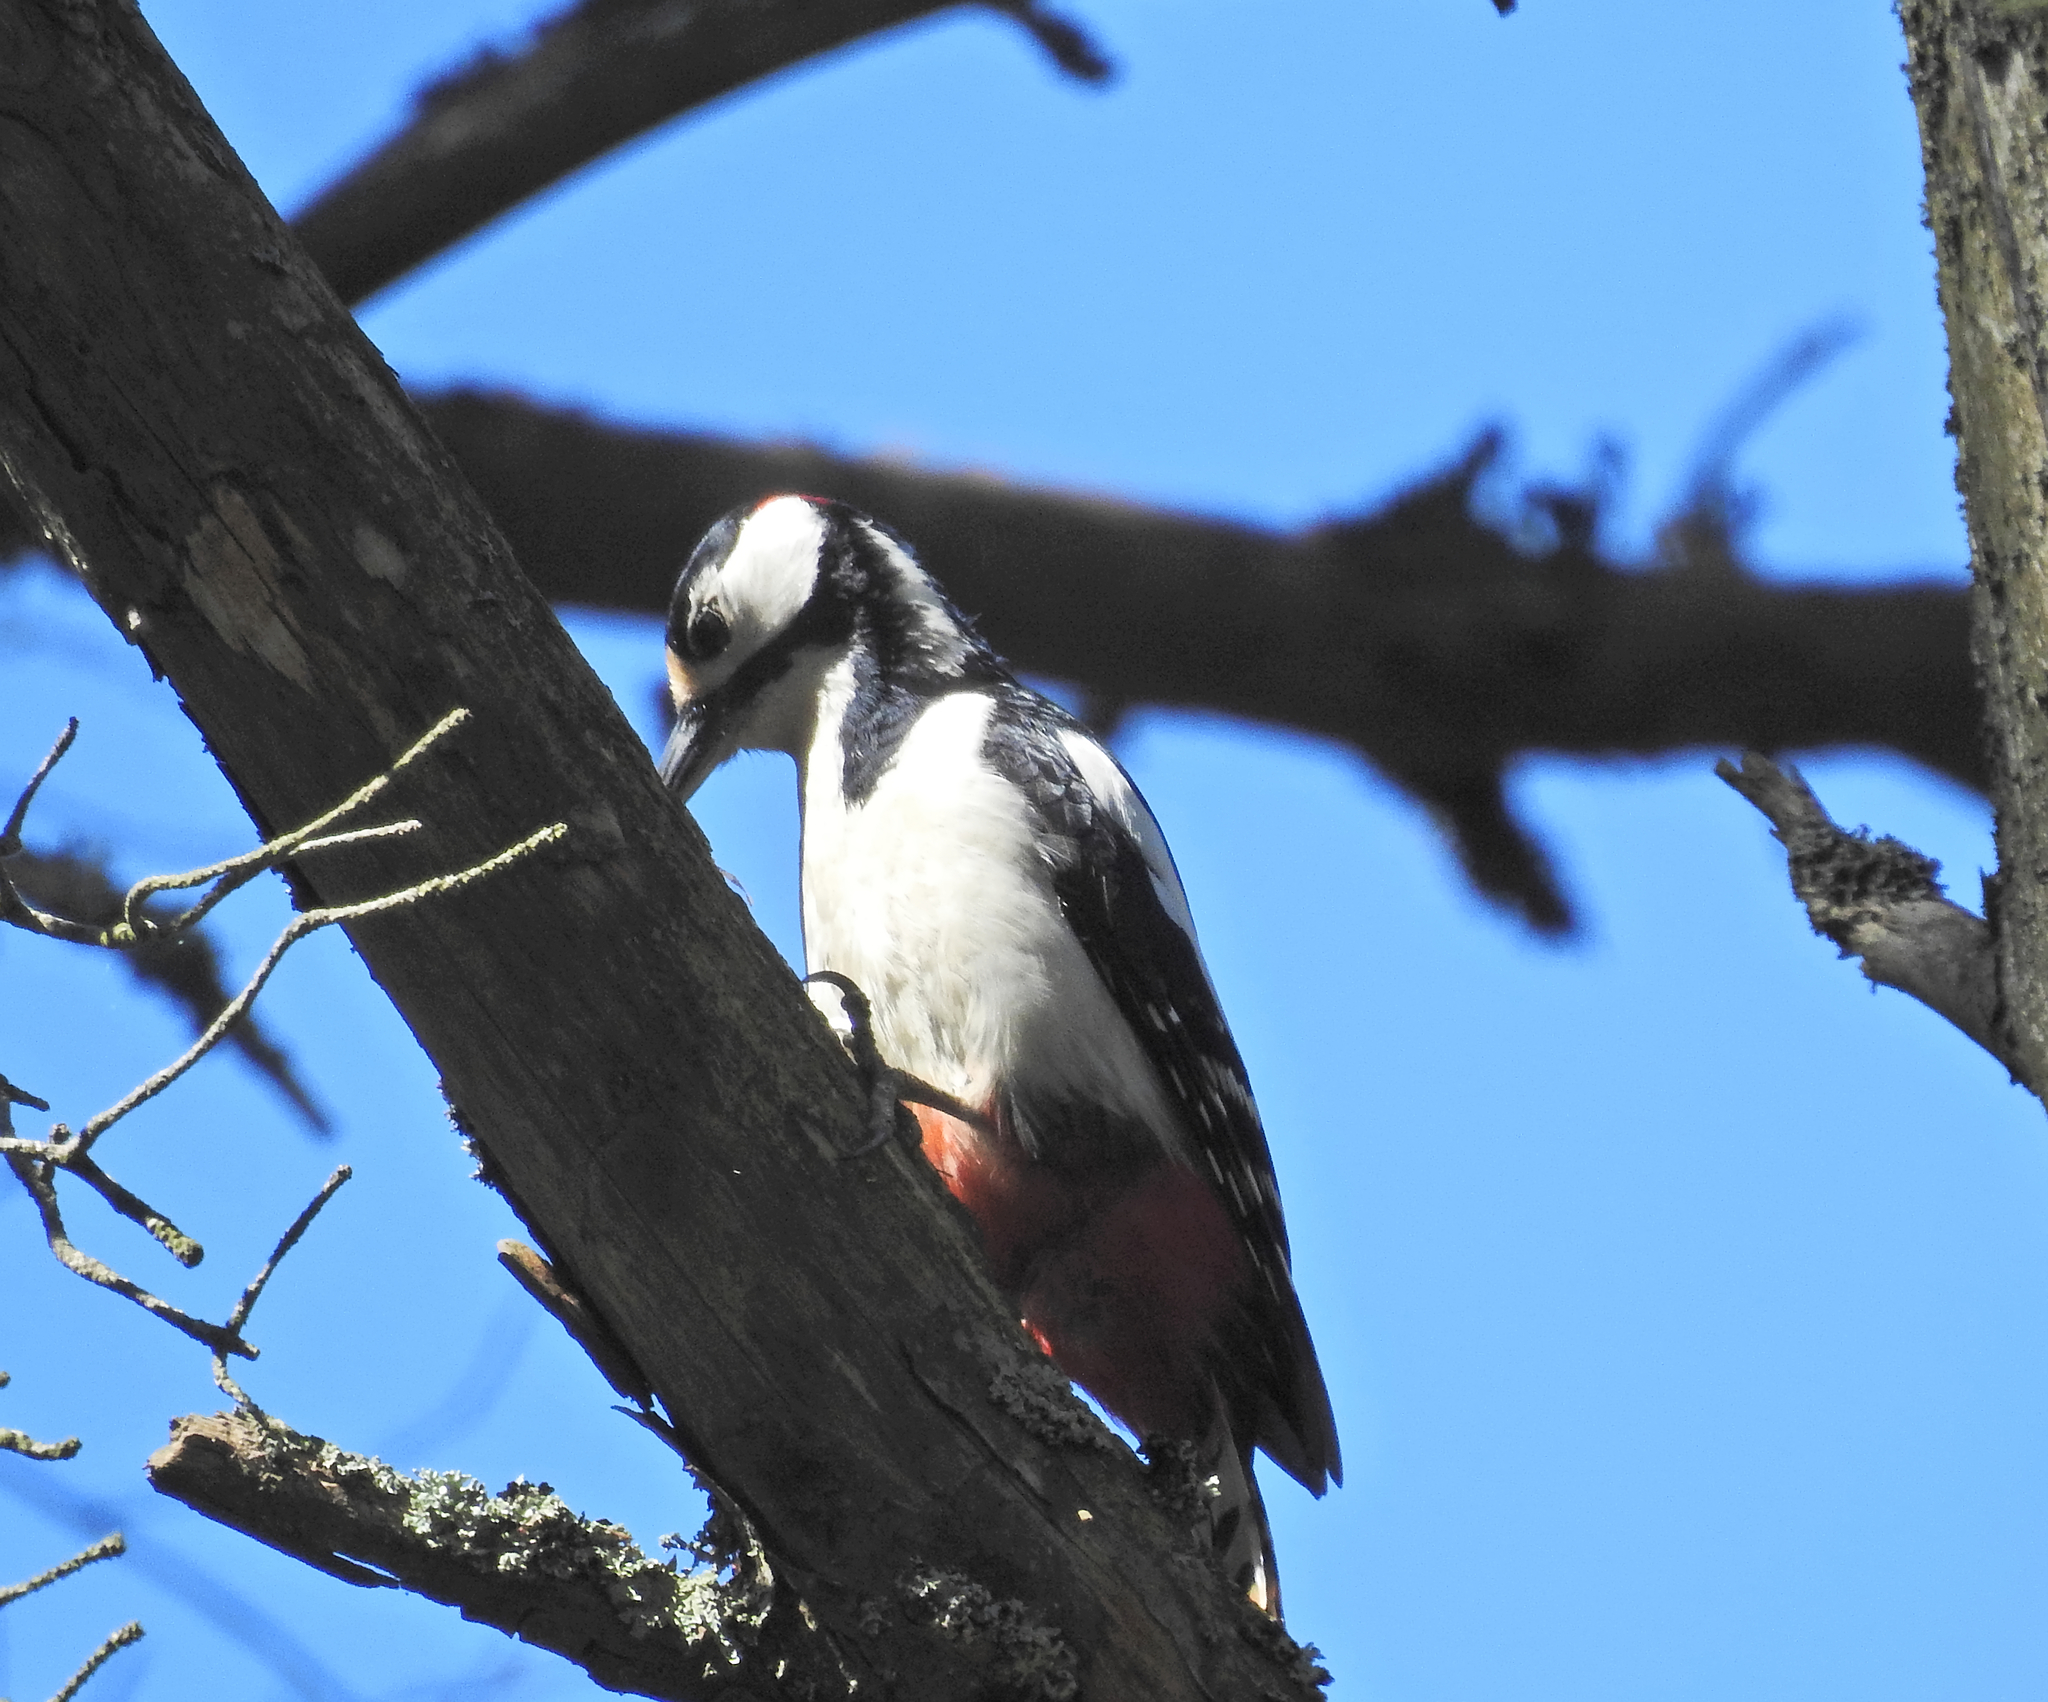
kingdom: Animalia
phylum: Chordata
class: Aves
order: Piciformes
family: Picidae
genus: Dendrocopos
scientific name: Dendrocopos major
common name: Great spotted woodpecker
